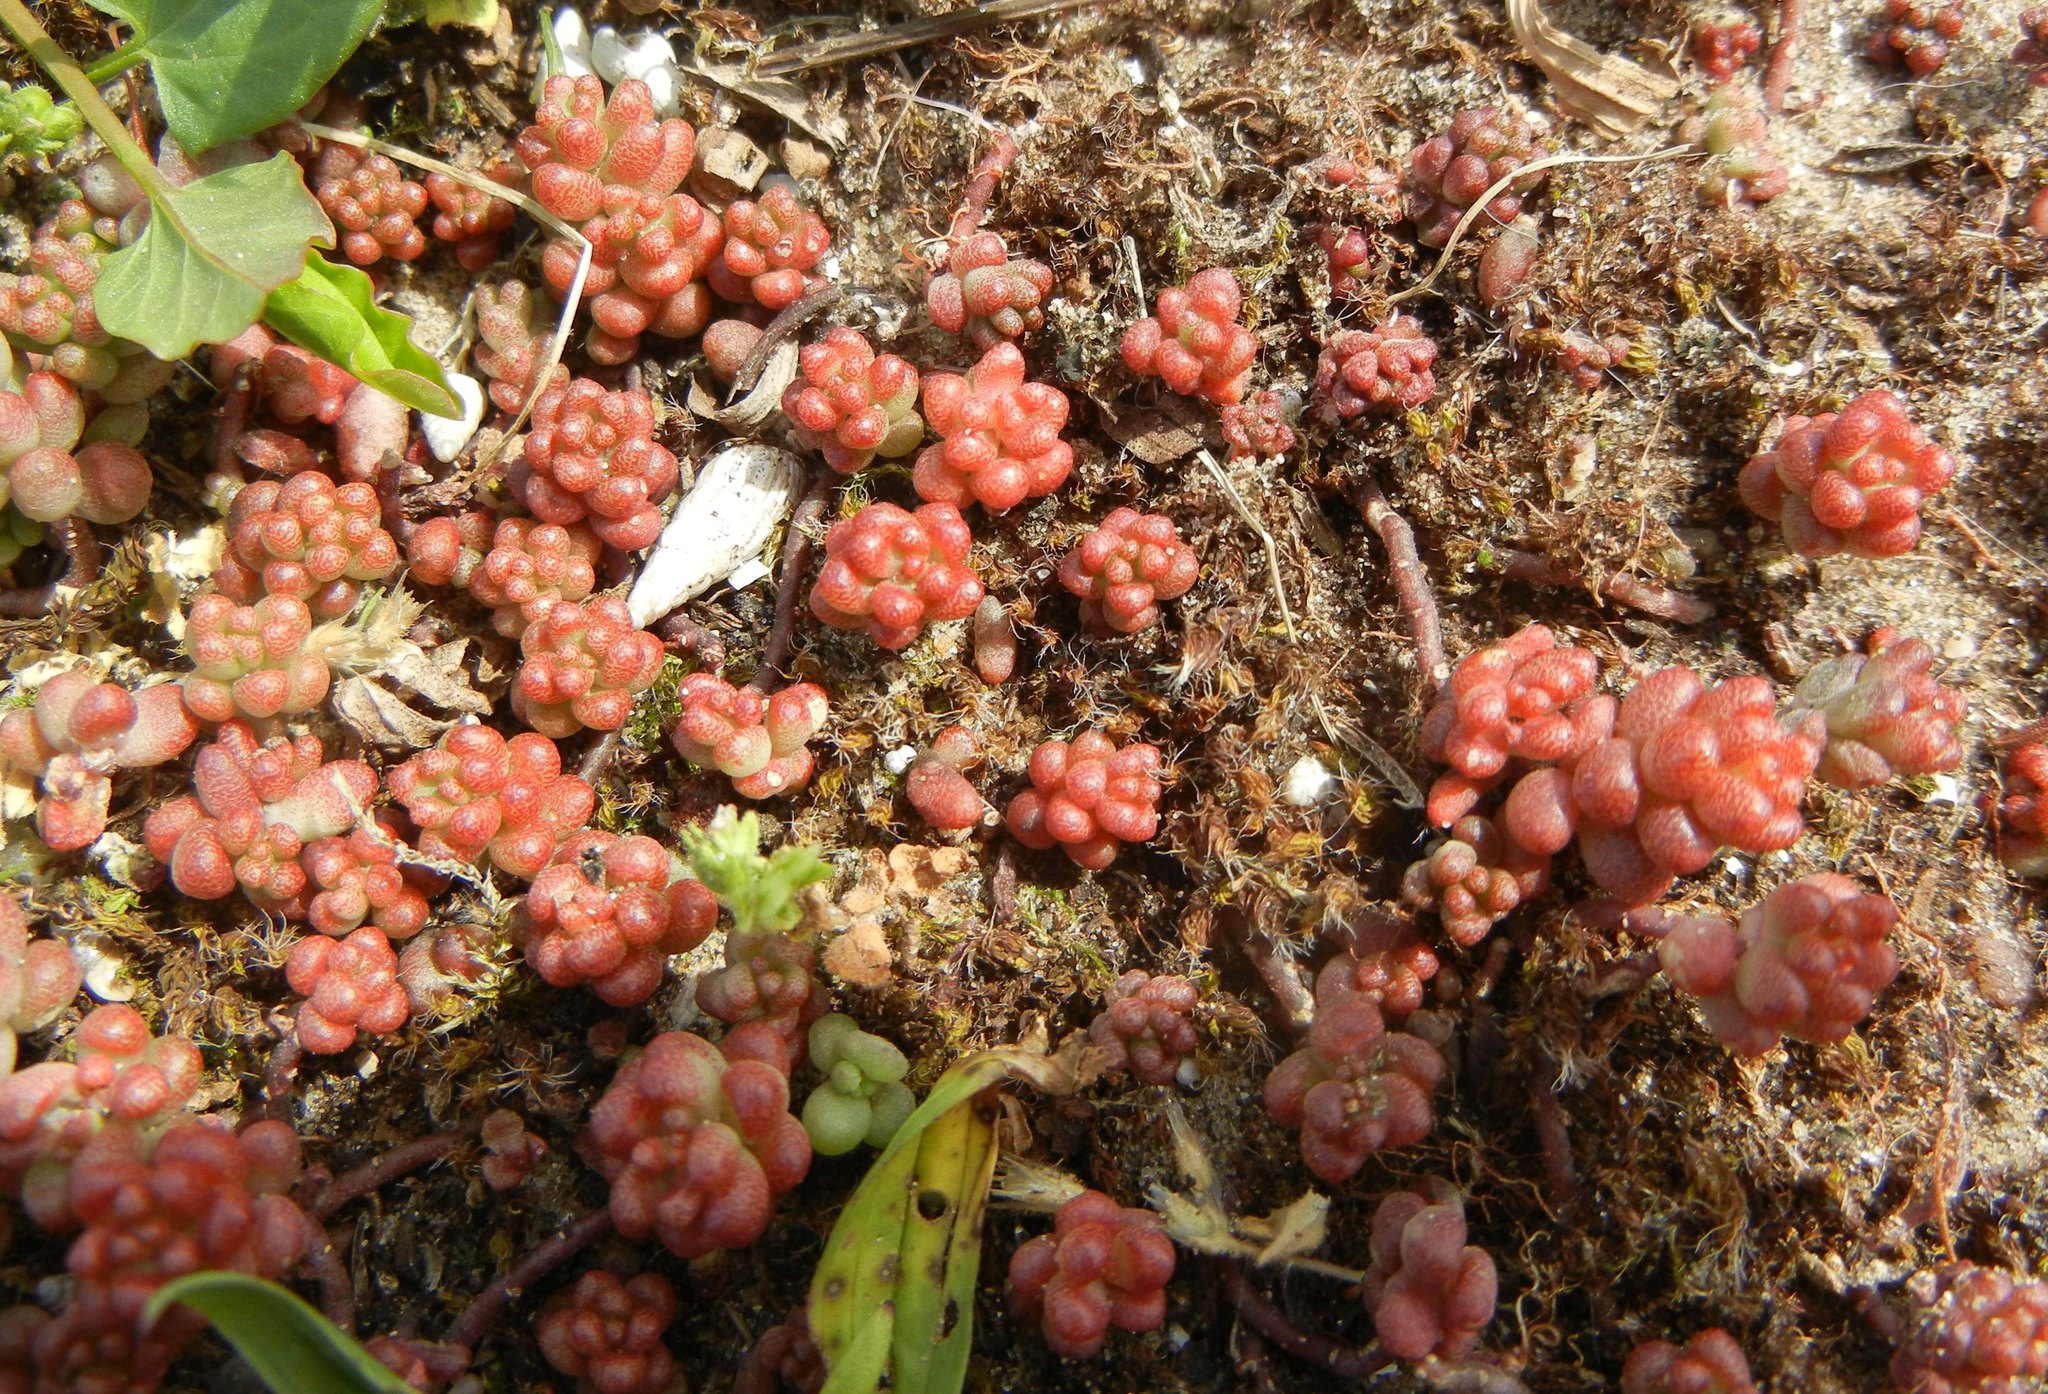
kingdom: Plantae
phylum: Tracheophyta
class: Magnoliopsida
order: Saxifragales
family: Crassulaceae
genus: Sedum
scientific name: Sedum album
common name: White stonecrop
